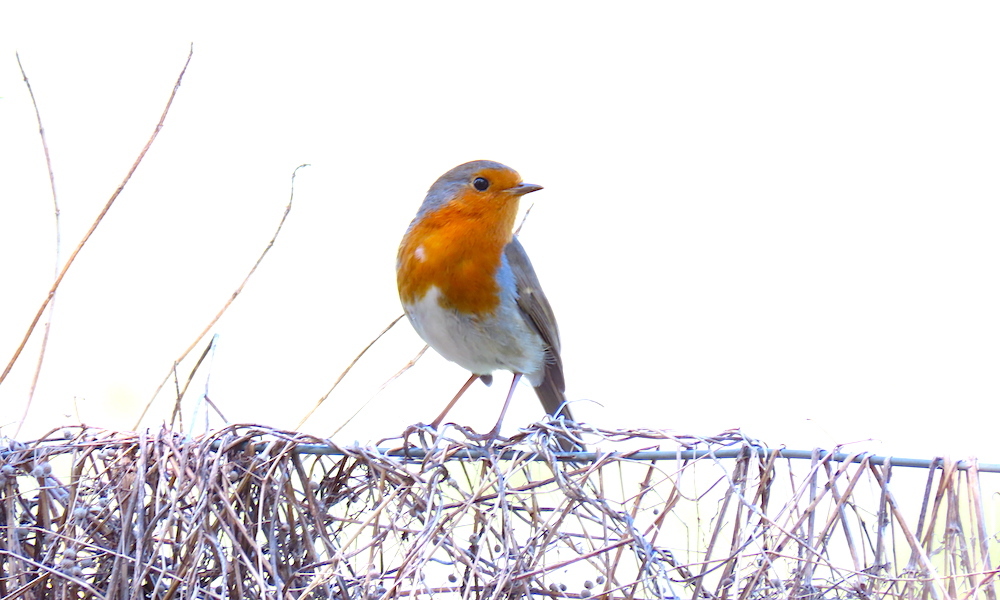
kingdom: Animalia
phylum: Chordata
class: Aves
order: Passeriformes
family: Muscicapidae
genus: Erithacus
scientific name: Erithacus rubecula
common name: European robin
